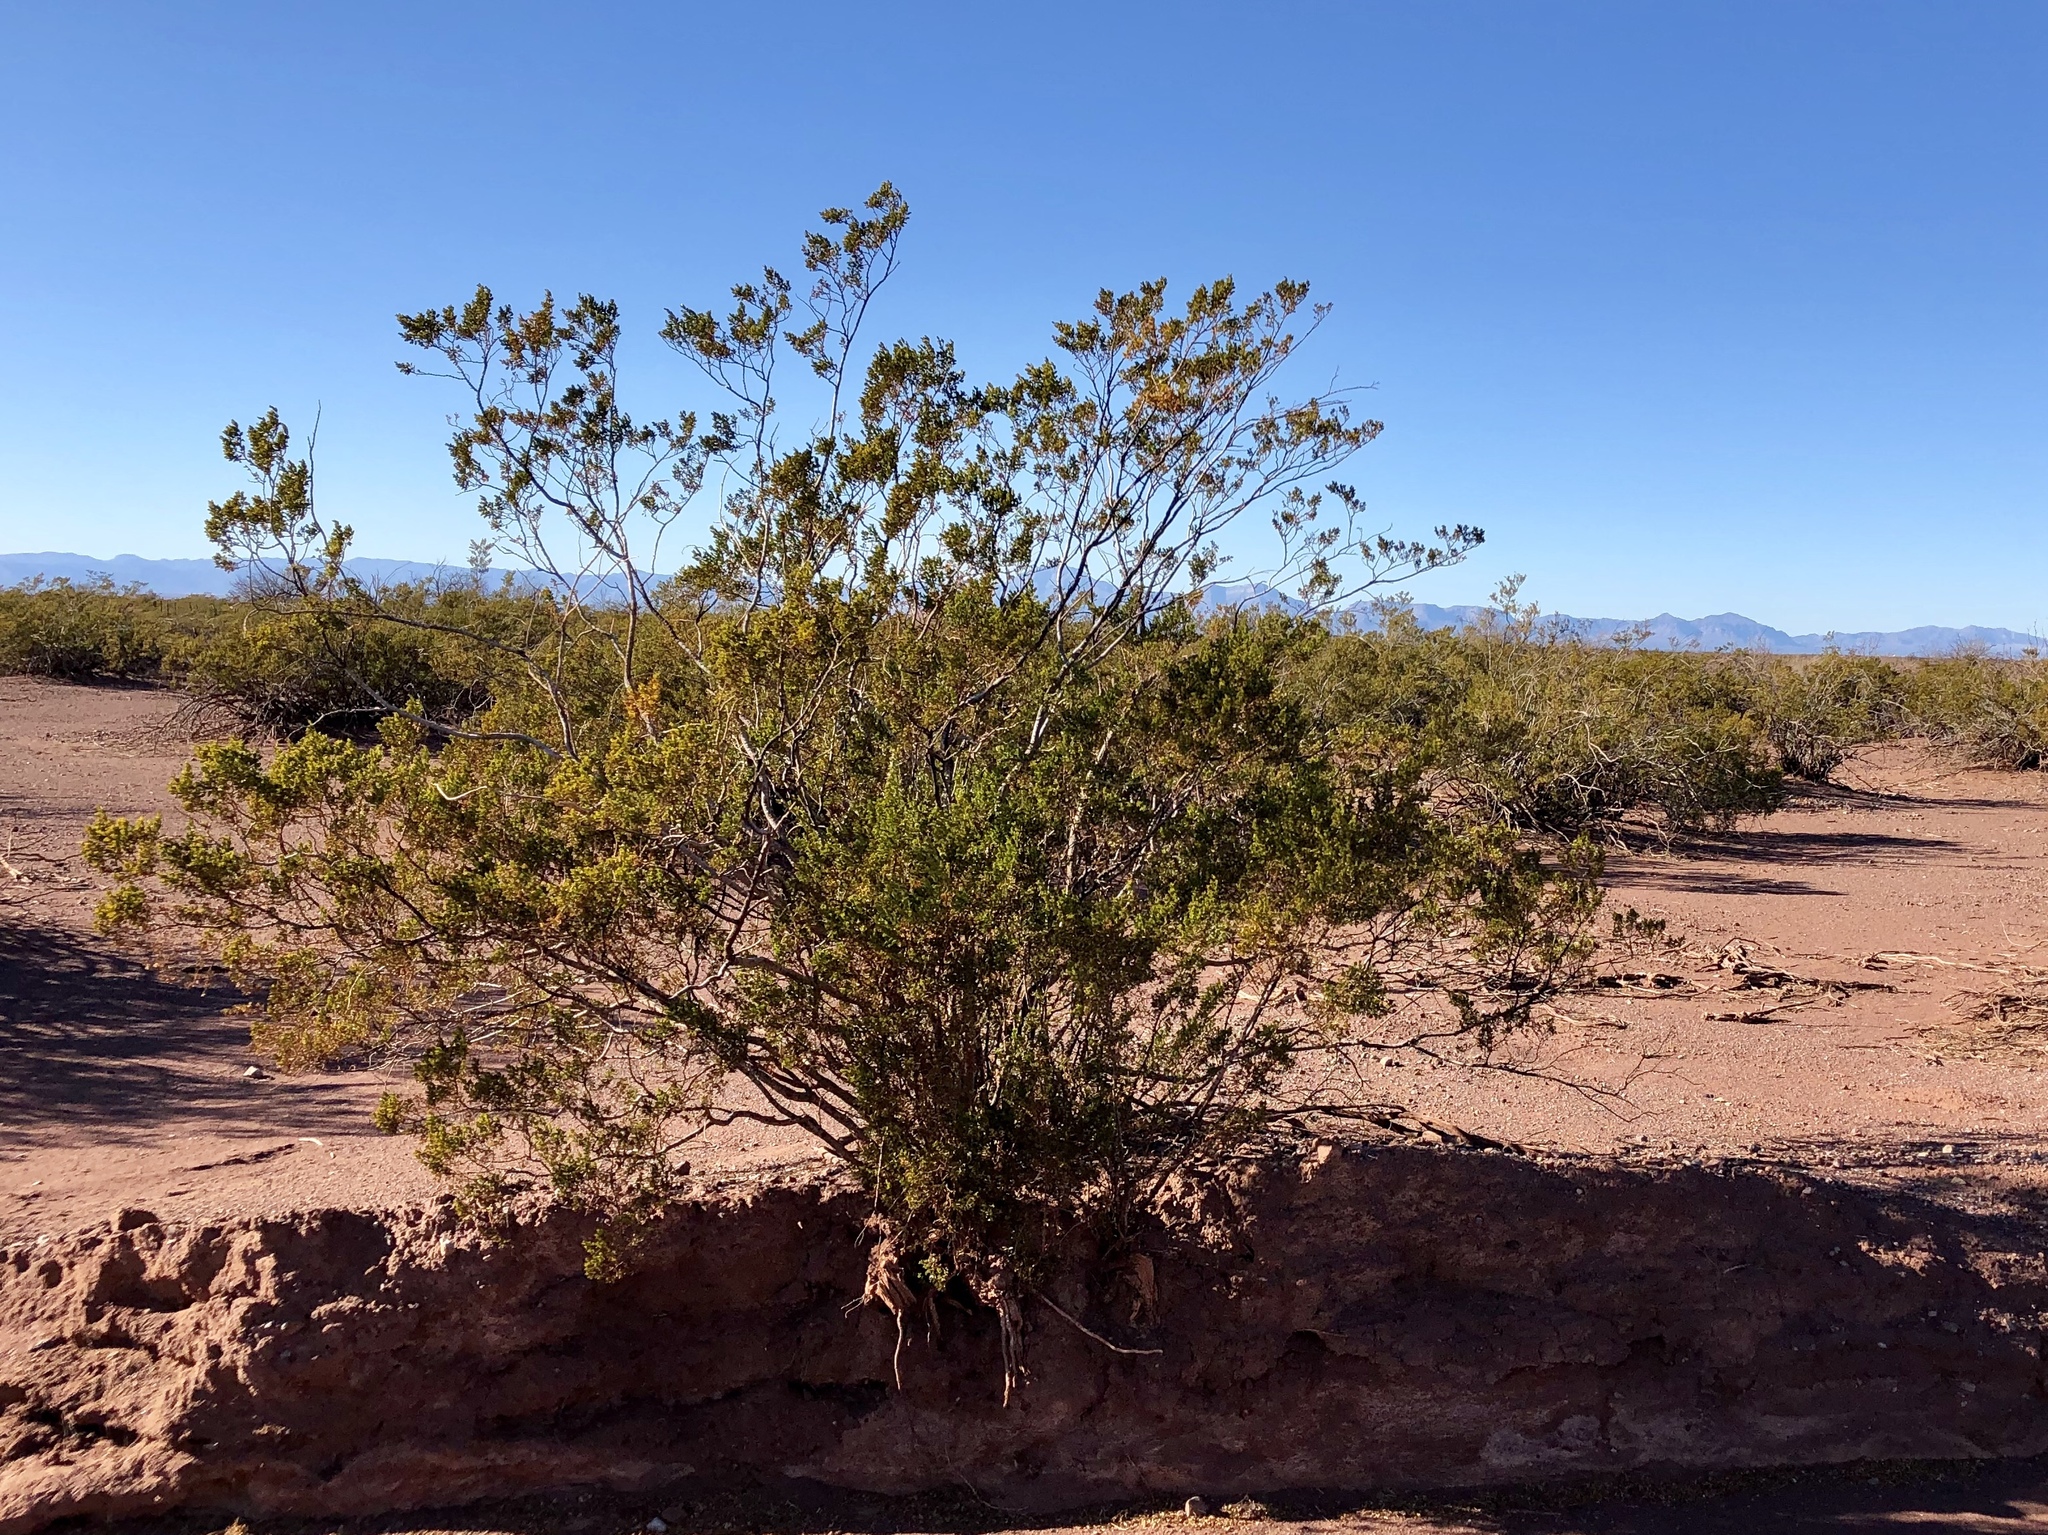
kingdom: Plantae
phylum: Tracheophyta
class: Magnoliopsida
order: Zygophyllales
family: Zygophyllaceae
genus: Larrea
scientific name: Larrea tridentata
